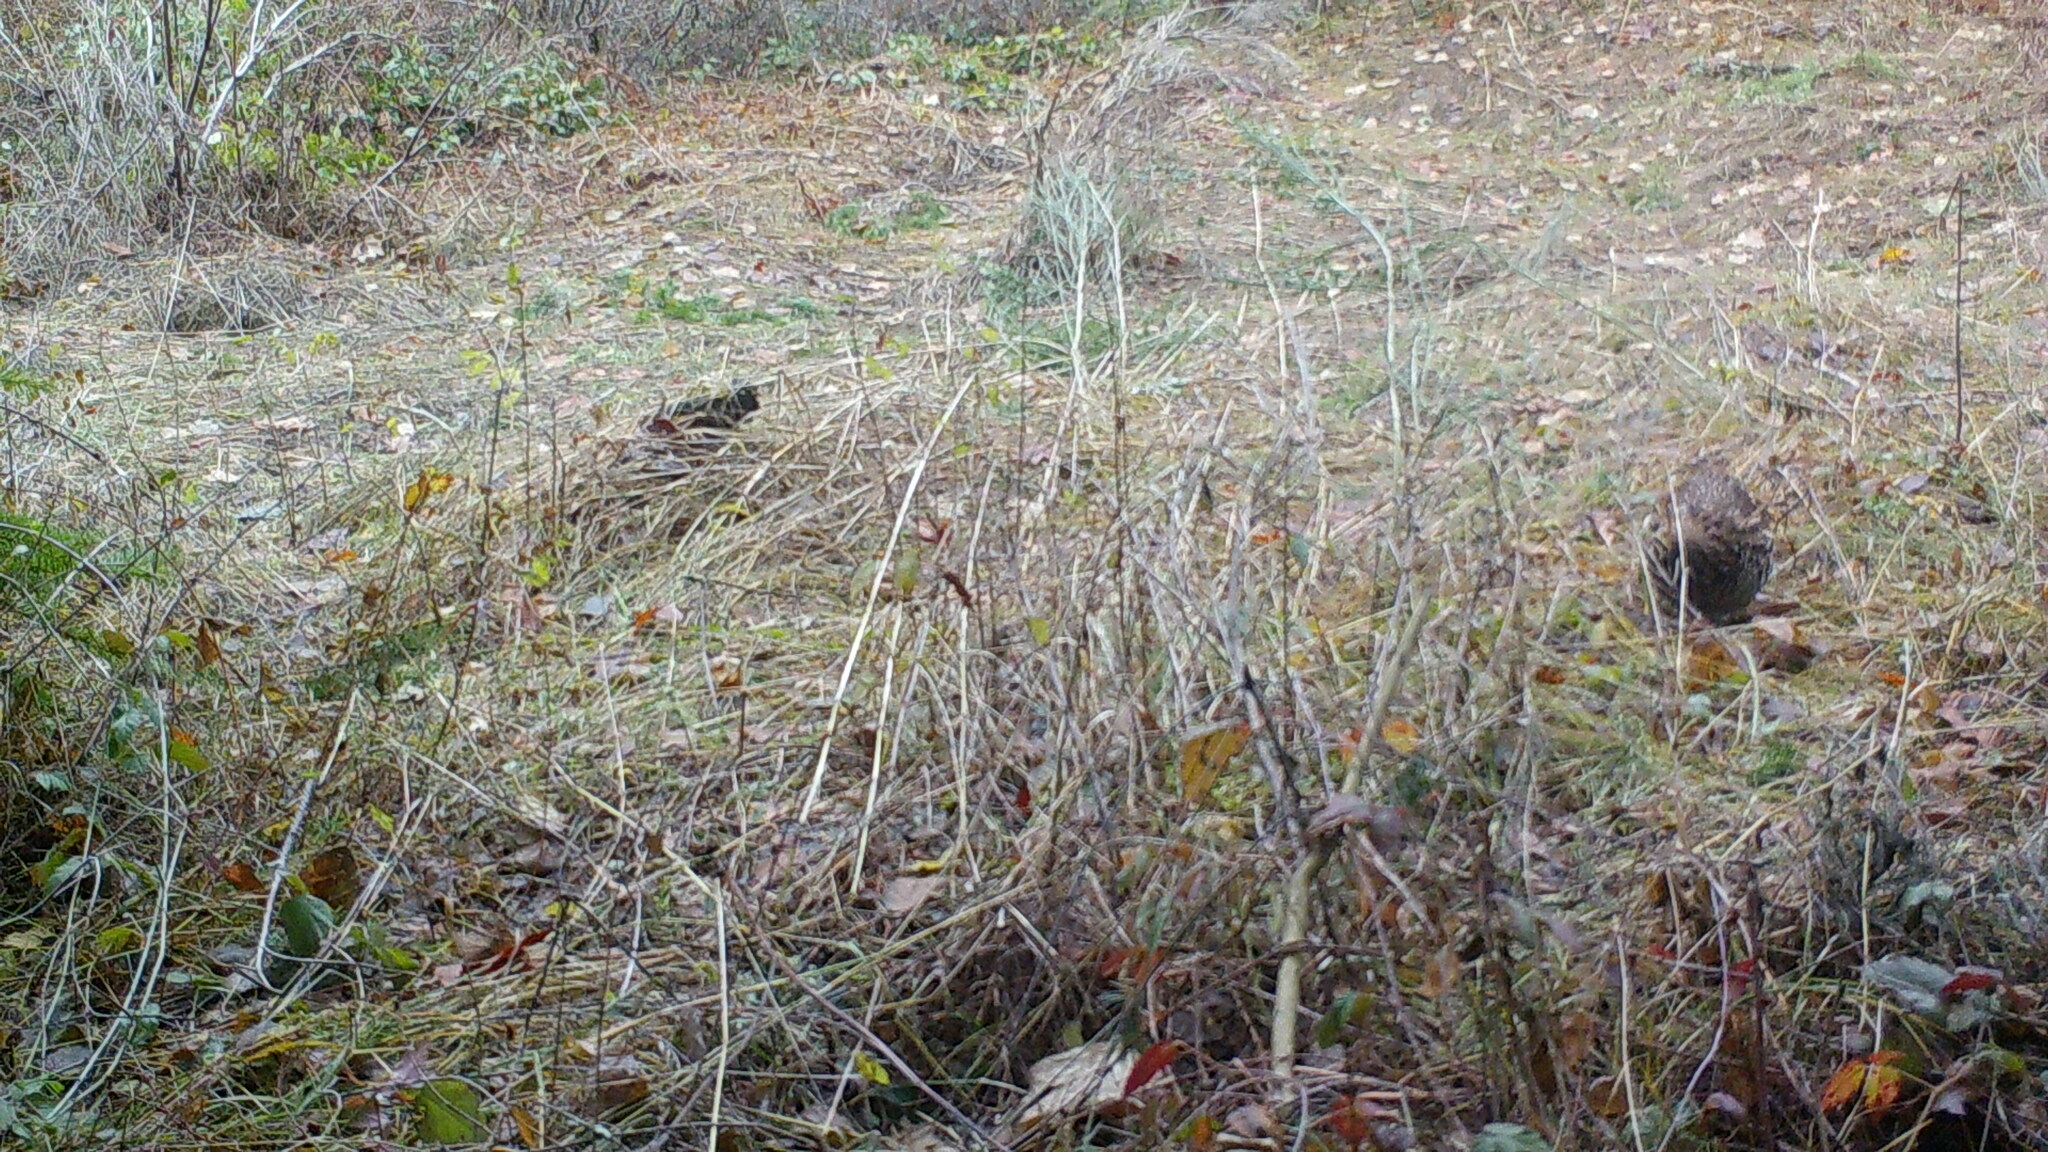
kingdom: Animalia
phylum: Chordata
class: Aves
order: Galliformes
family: Phasianidae
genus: Bonasa
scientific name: Bonasa umbellus
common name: Ruffed grouse
